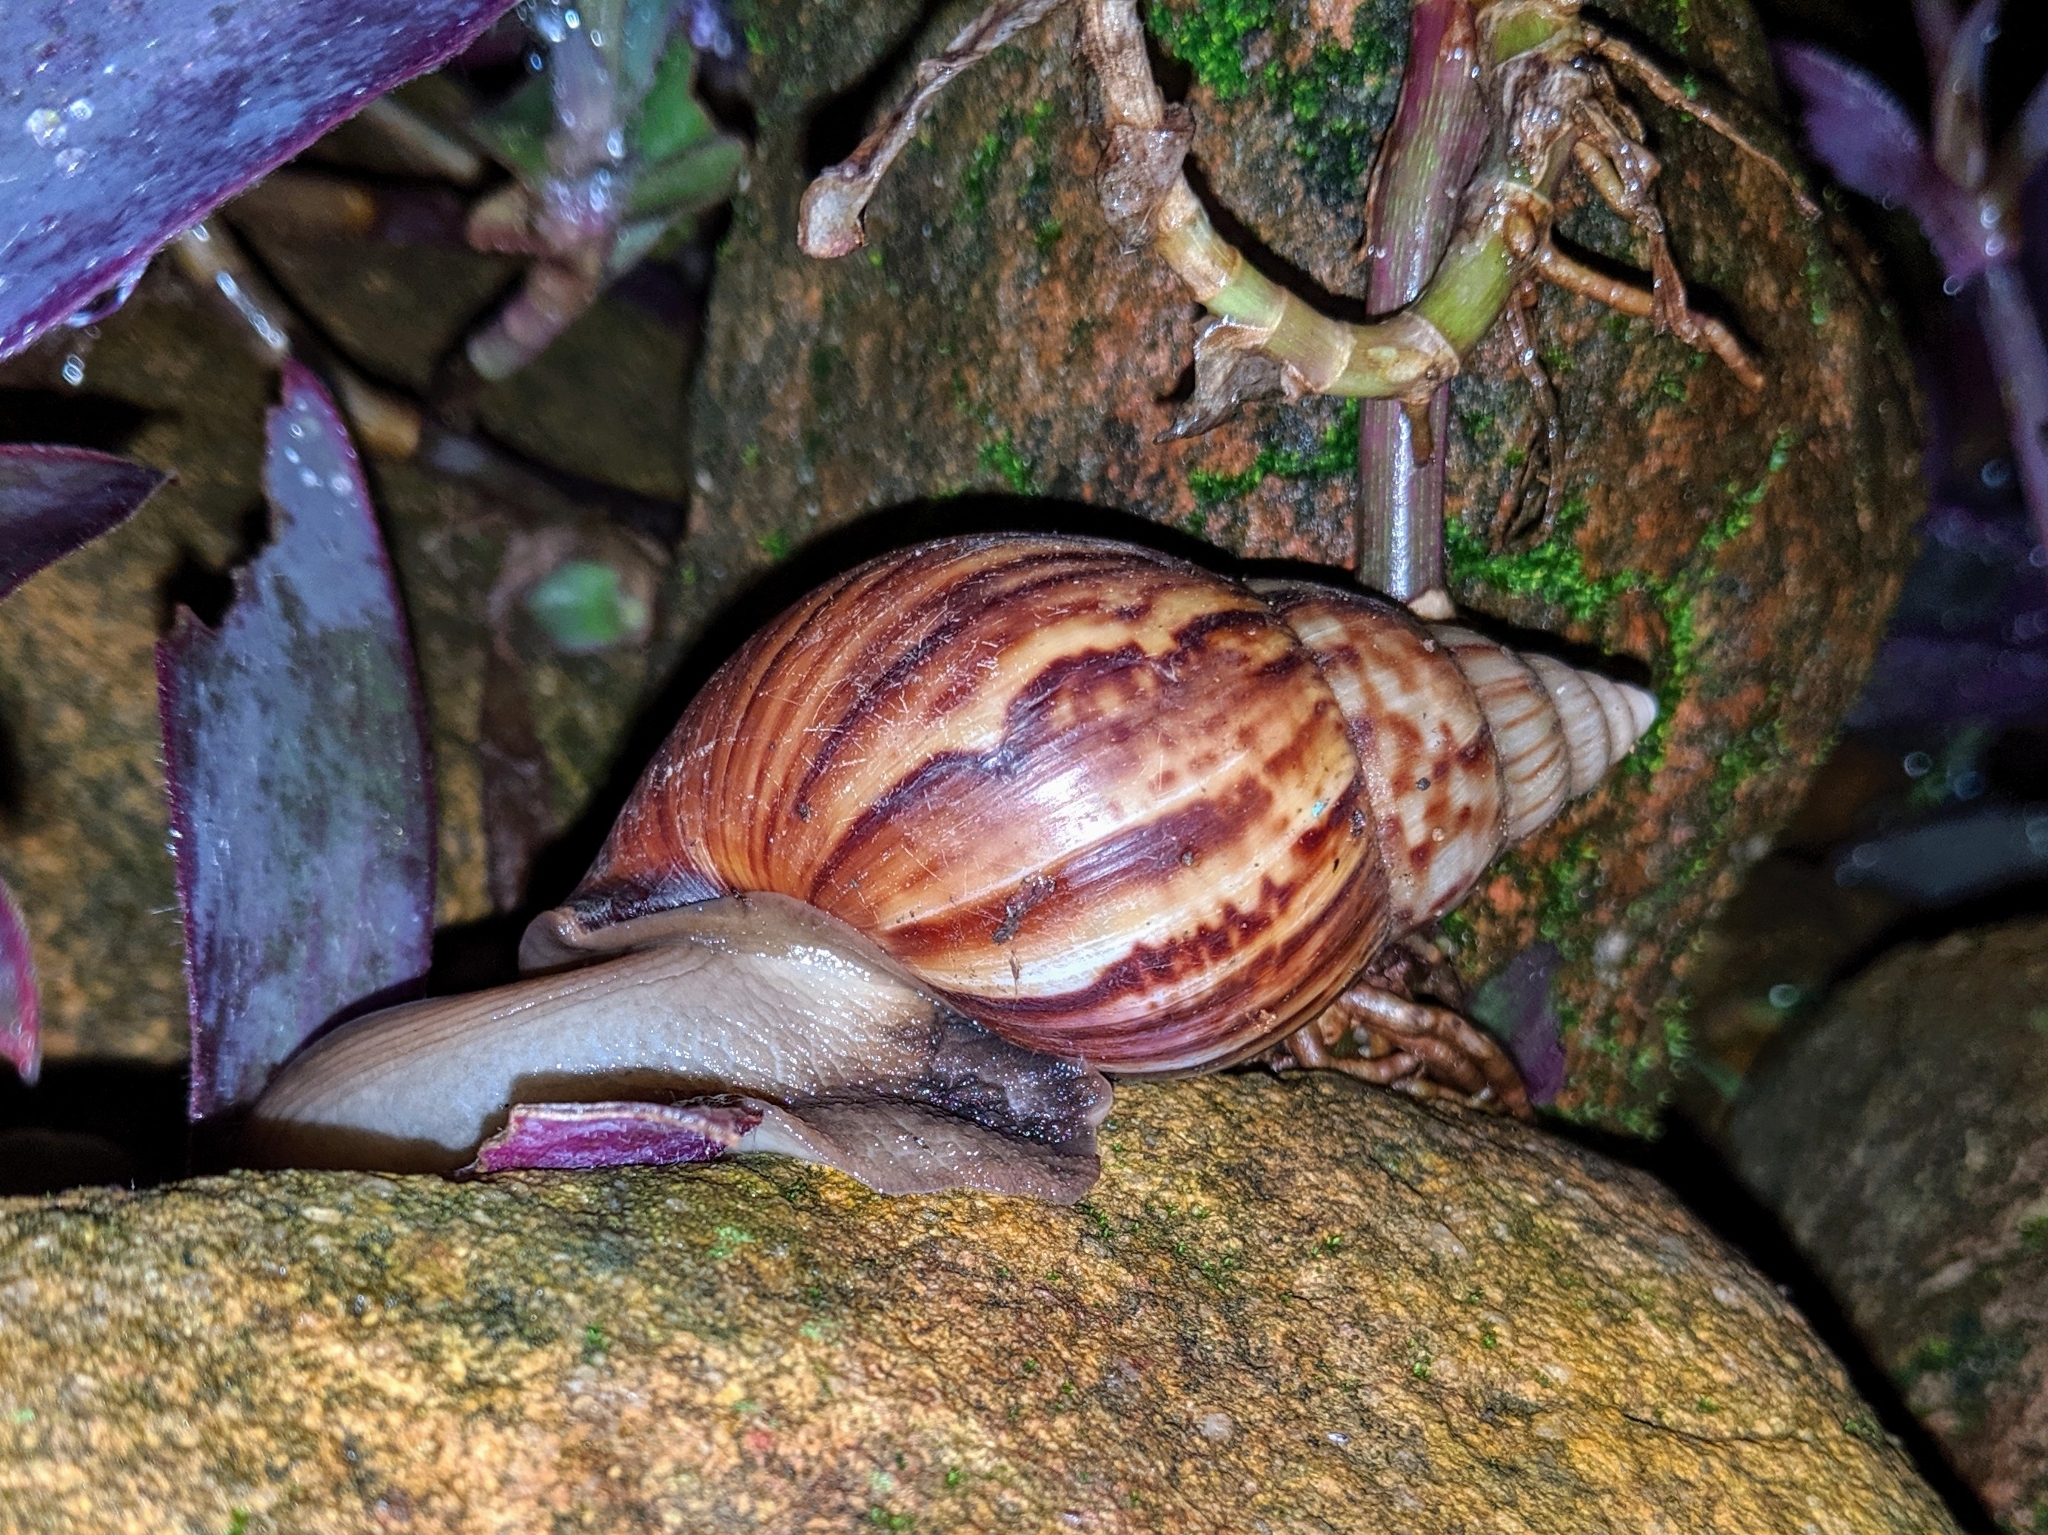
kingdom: Animalia
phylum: Mollusca
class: Gastropoda
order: Stylommatophora
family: Achatinidae
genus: Lissachatina
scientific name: Lissachatina fulica
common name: Giant african snail
